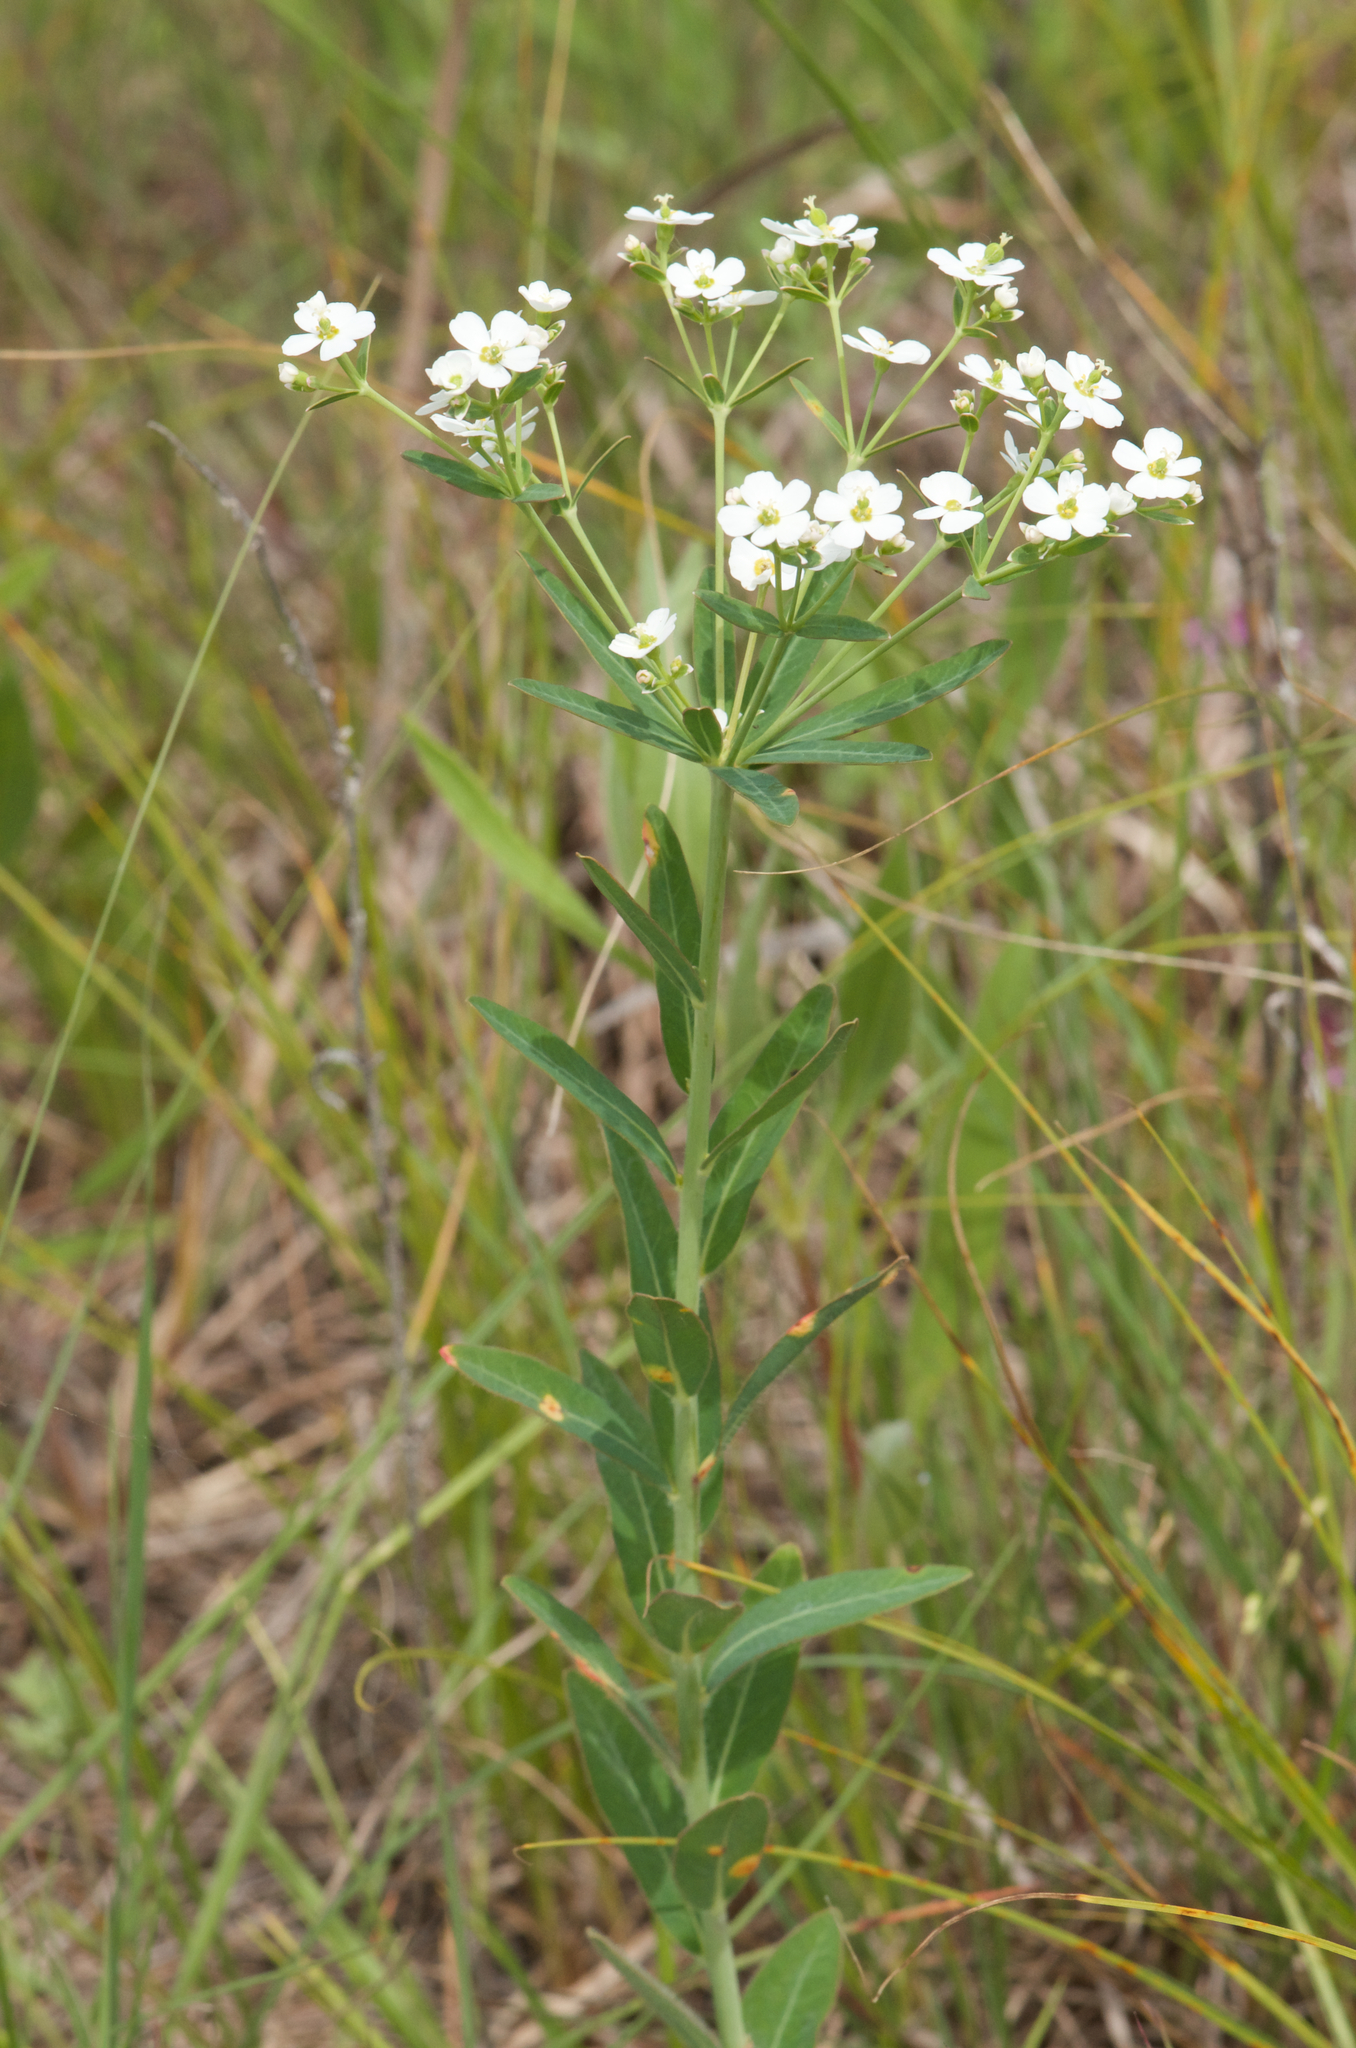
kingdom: Plantae
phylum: Tracheophyta
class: Magnoliopsida
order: Malpighiales
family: Euphorbiaceae
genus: Euphorbia
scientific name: Euphorbia corollata
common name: Flowering spurge
